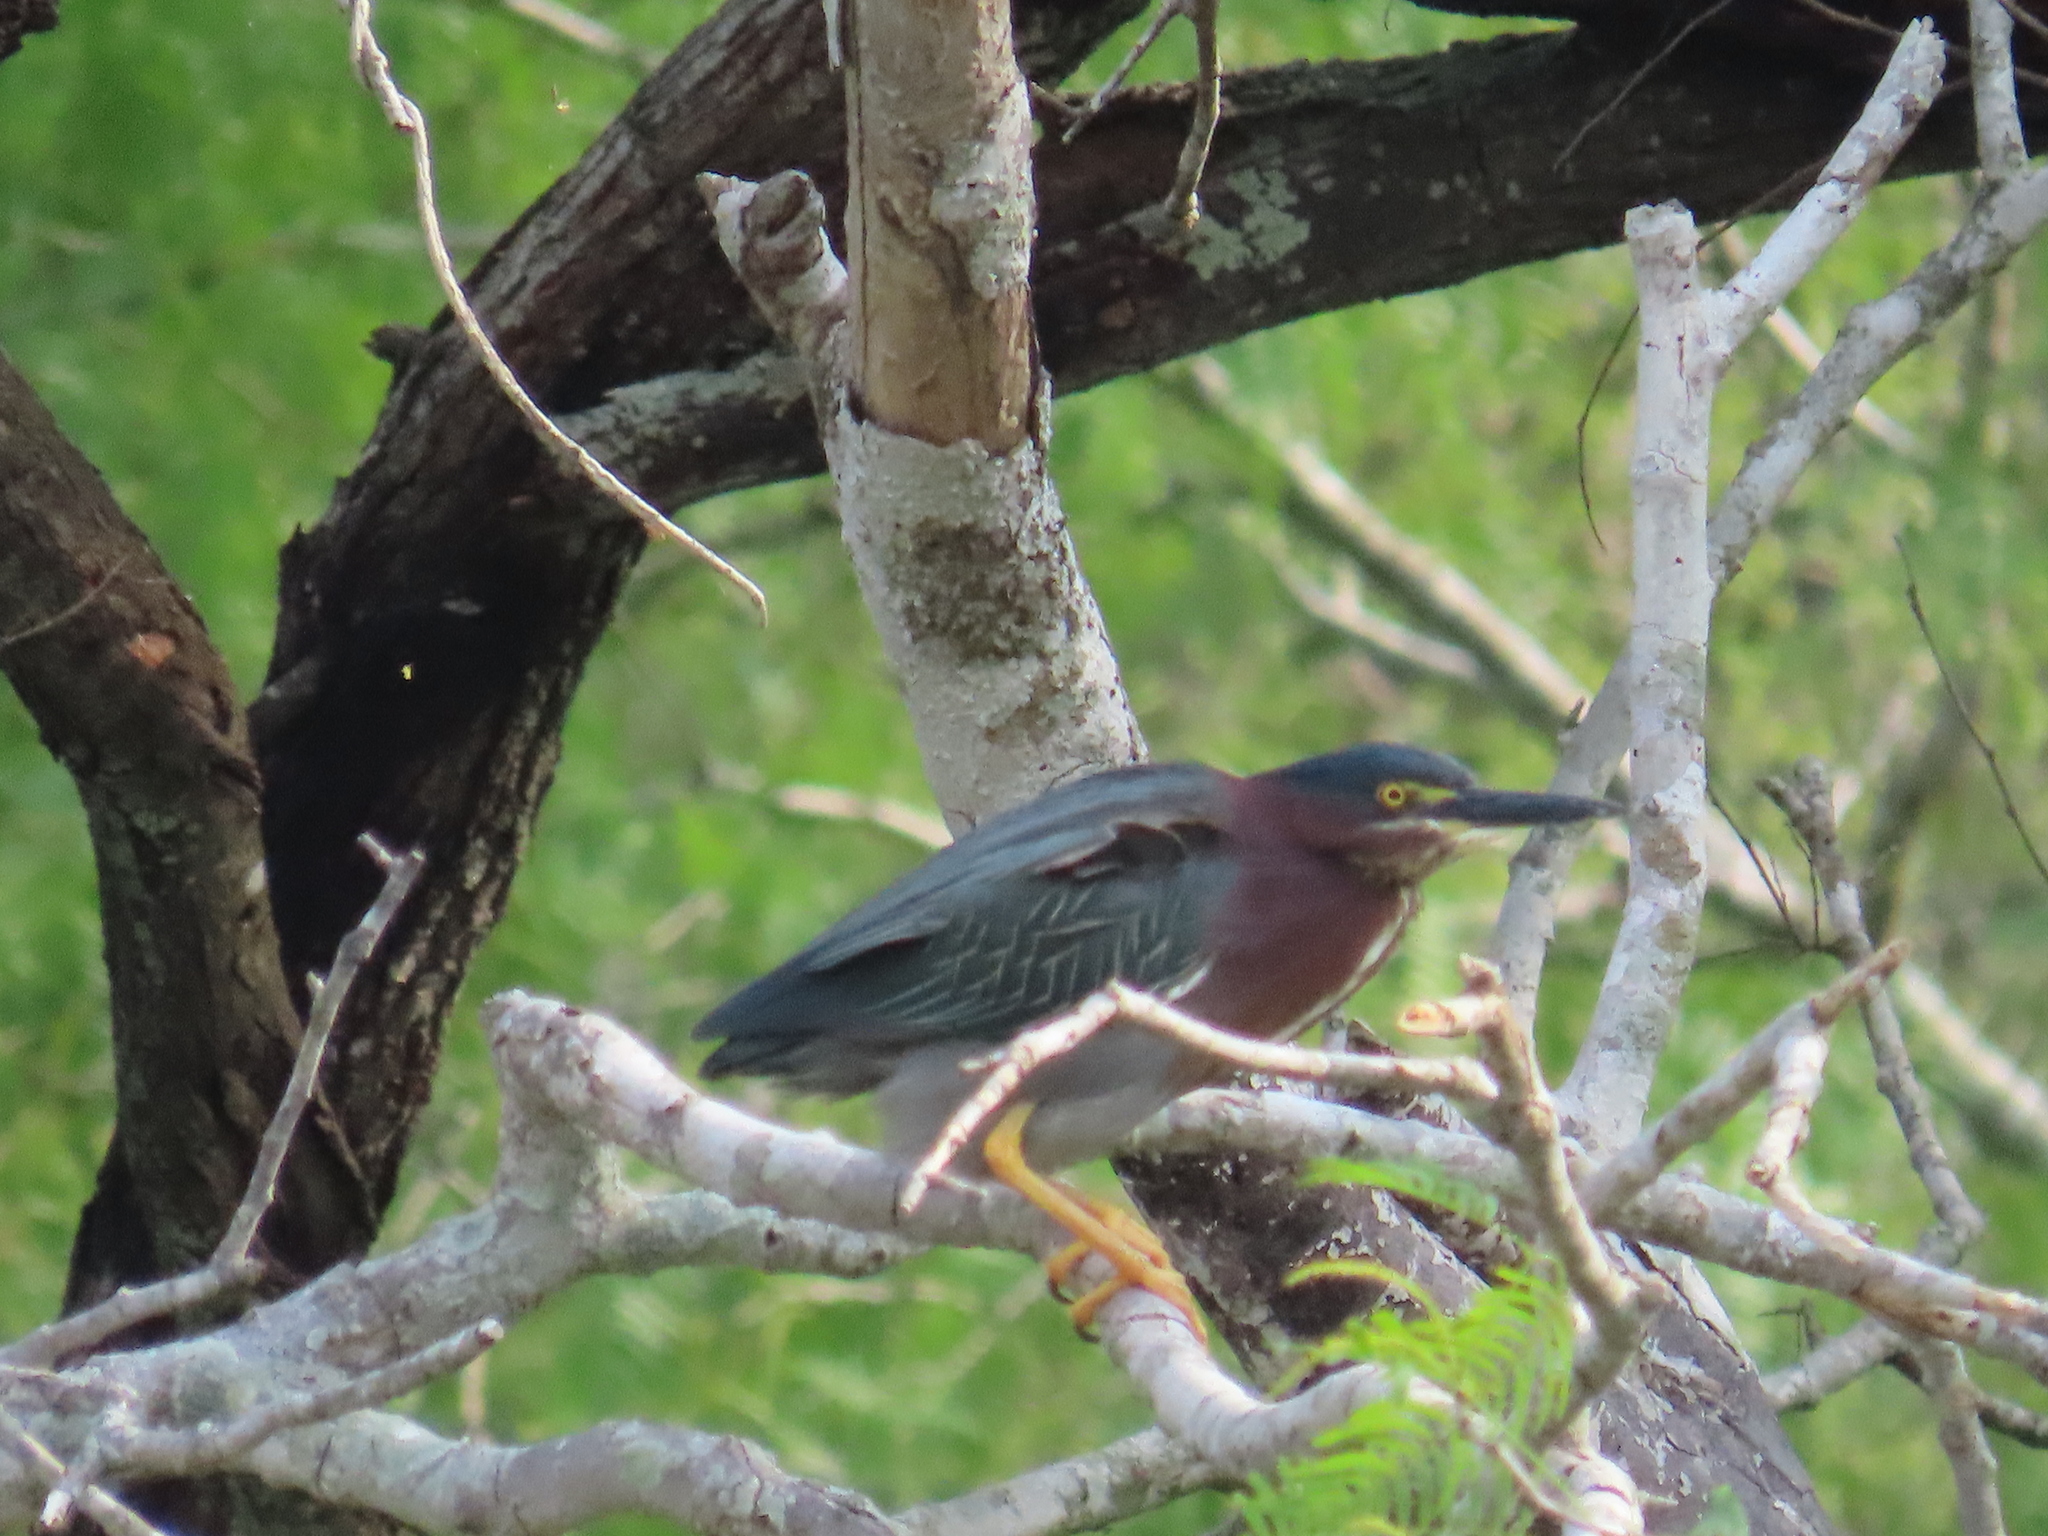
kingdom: Animalia
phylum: Chordata
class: Aves
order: Pelecaniformes
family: Ardeidae
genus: Butorides
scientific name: Butorides virescens
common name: Green heron
